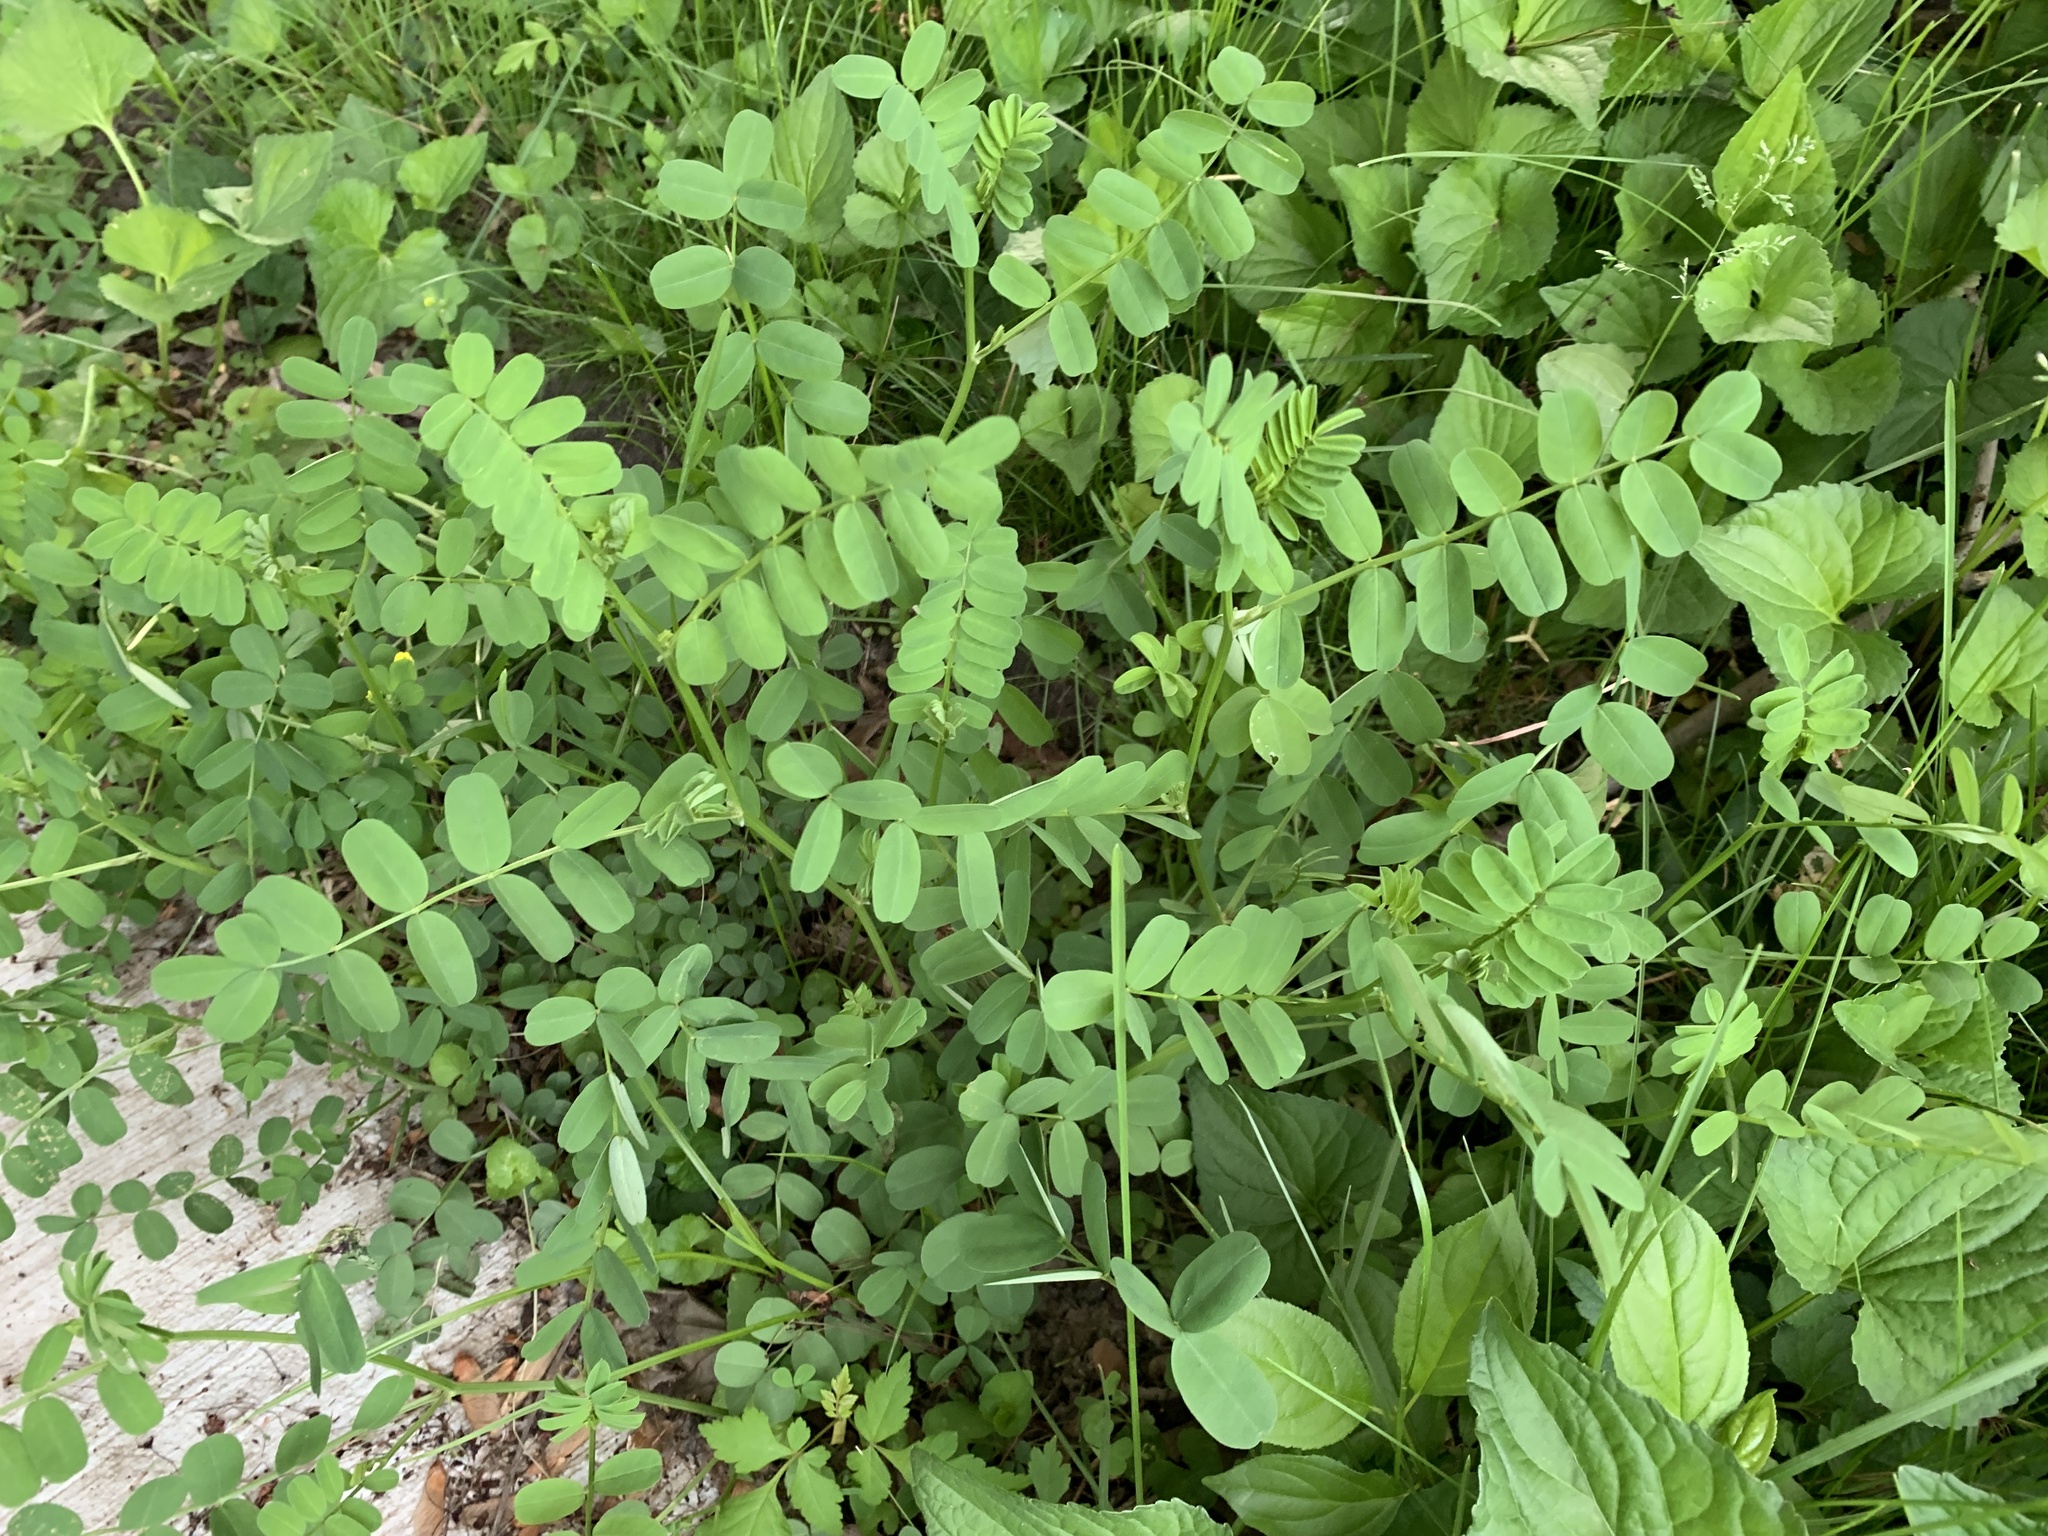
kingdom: Plantae
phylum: Tracheophyta
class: Magnoliopsida
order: Fabales
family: Fabaceae
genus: Coronilla
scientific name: Coronilla varia
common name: Crownvetch
